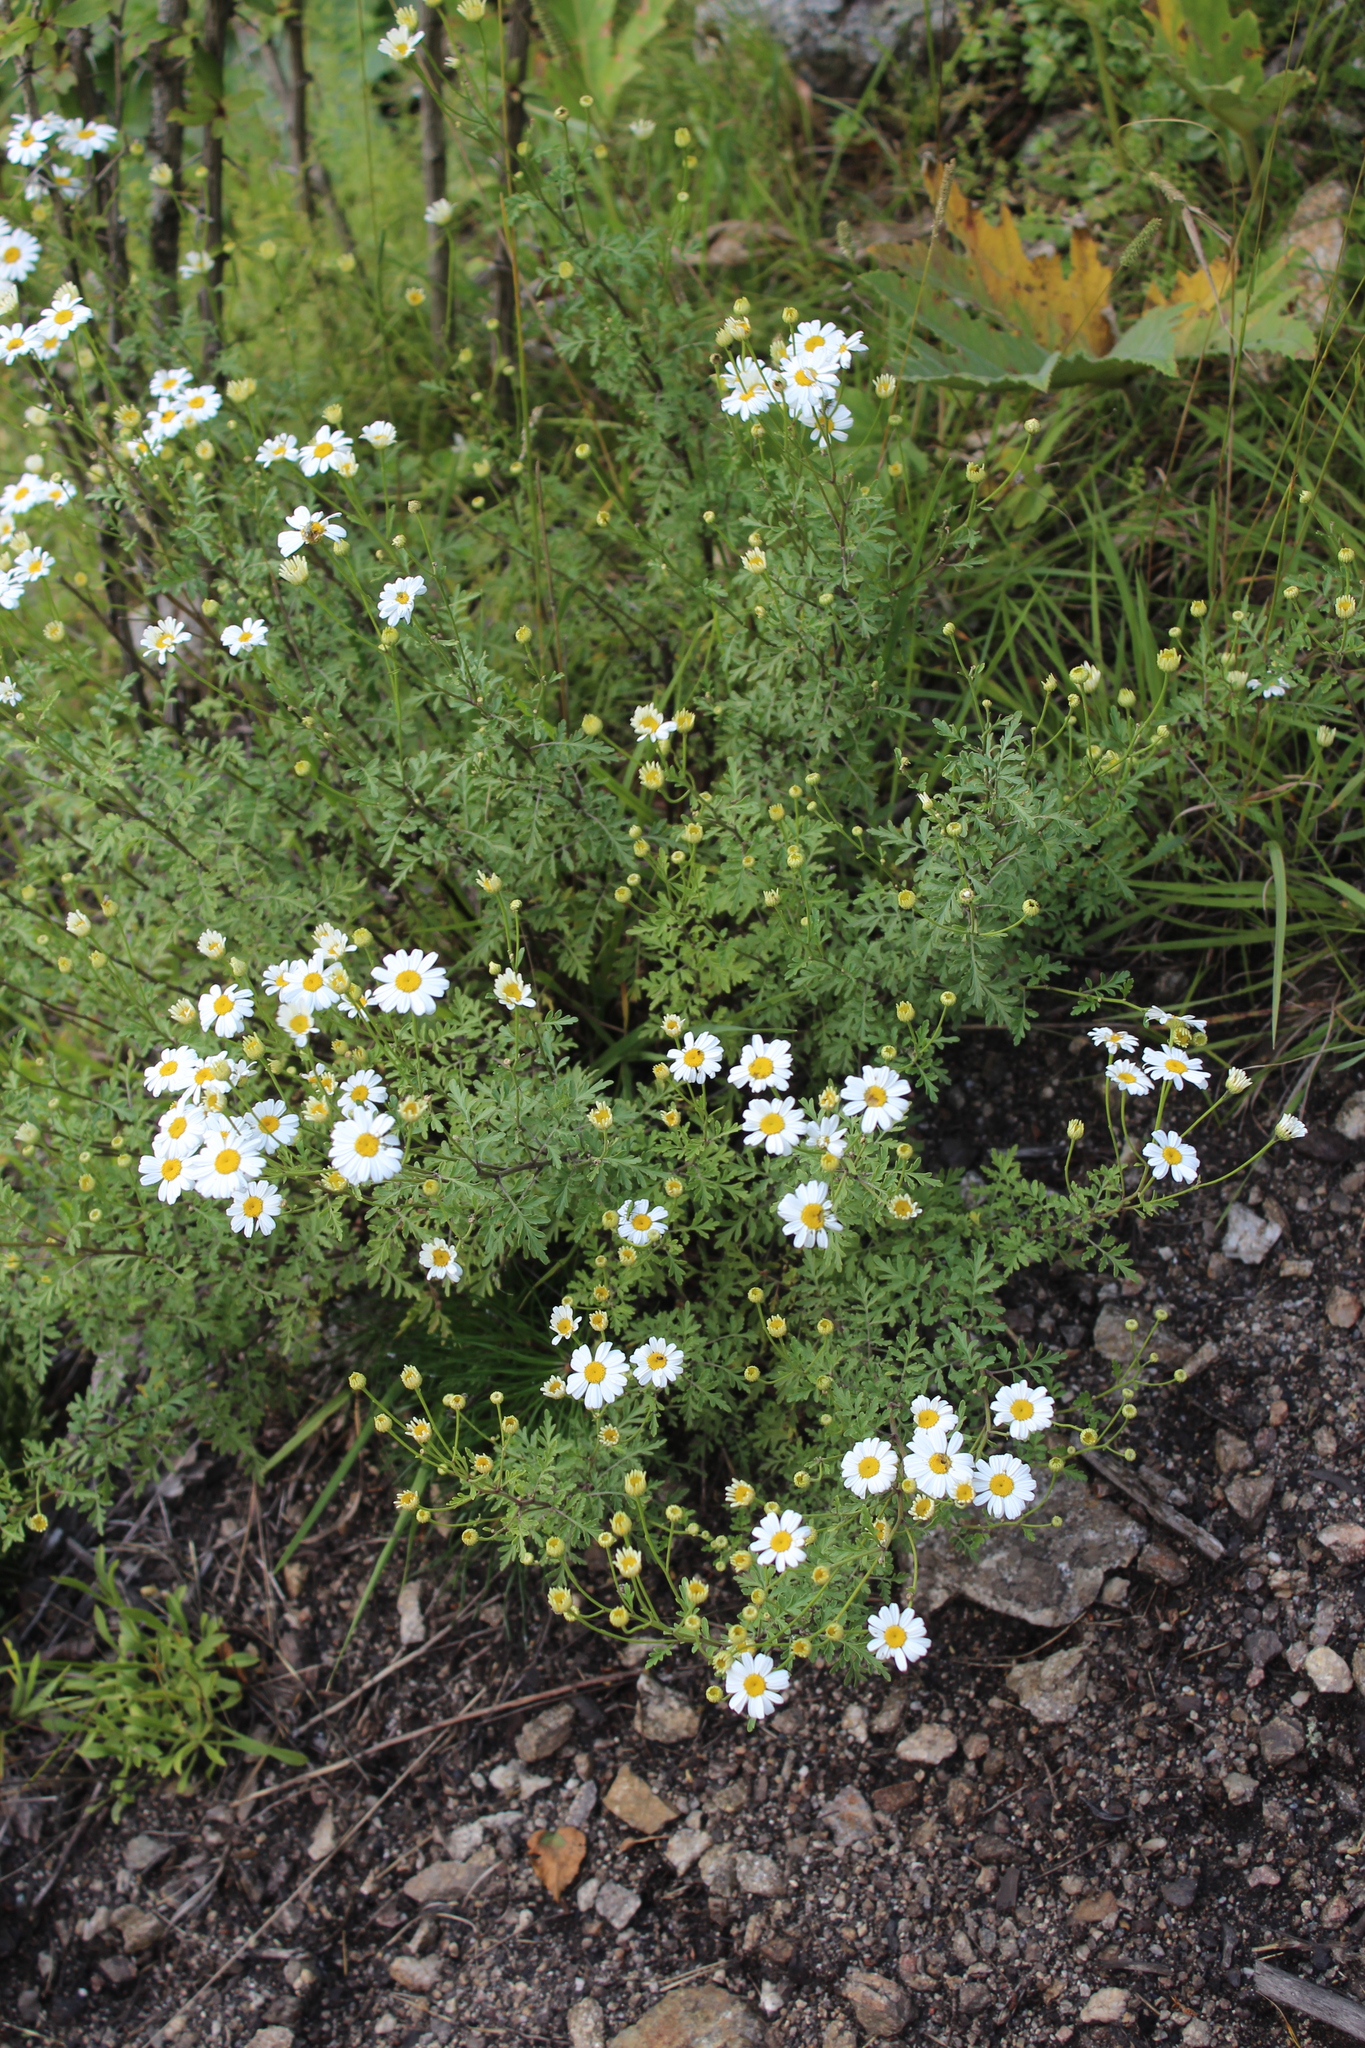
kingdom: Plantae
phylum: Tracheophyta
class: Magnoliopsida
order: Asterales
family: Asteraceae
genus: Tanacetum
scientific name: Tanacetum partheniifolium
